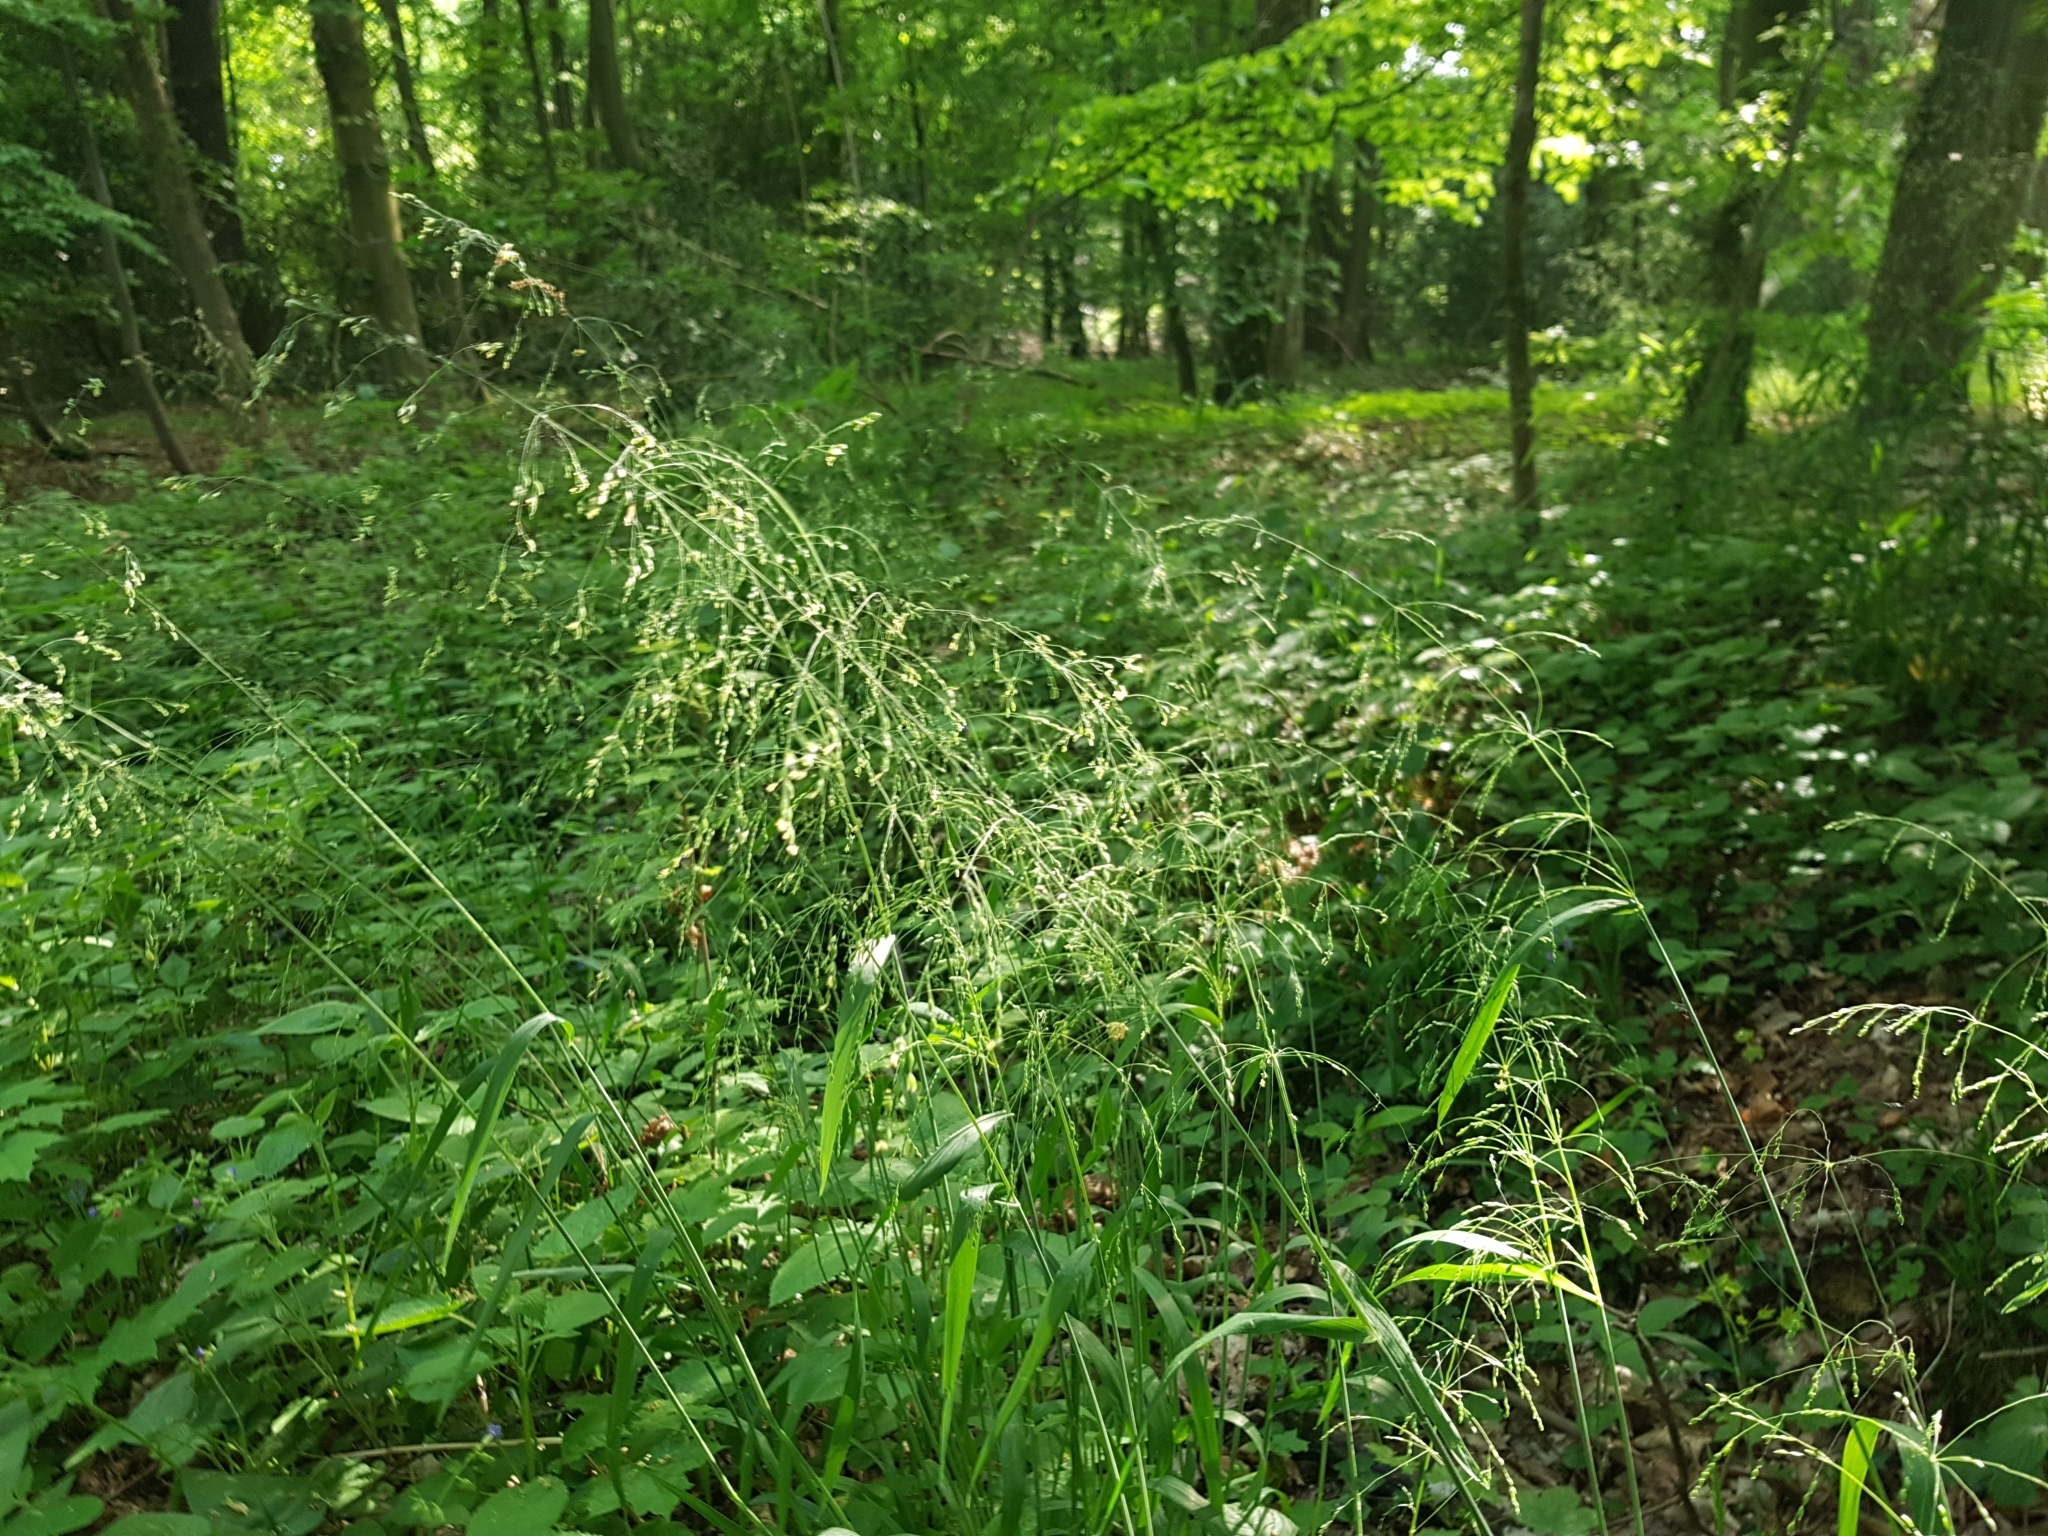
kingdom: Plantae
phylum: Tracheophyta
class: Liliopsida
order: Poales
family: Poaceae
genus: Milium
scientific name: Milium effusum
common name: Wood millet
